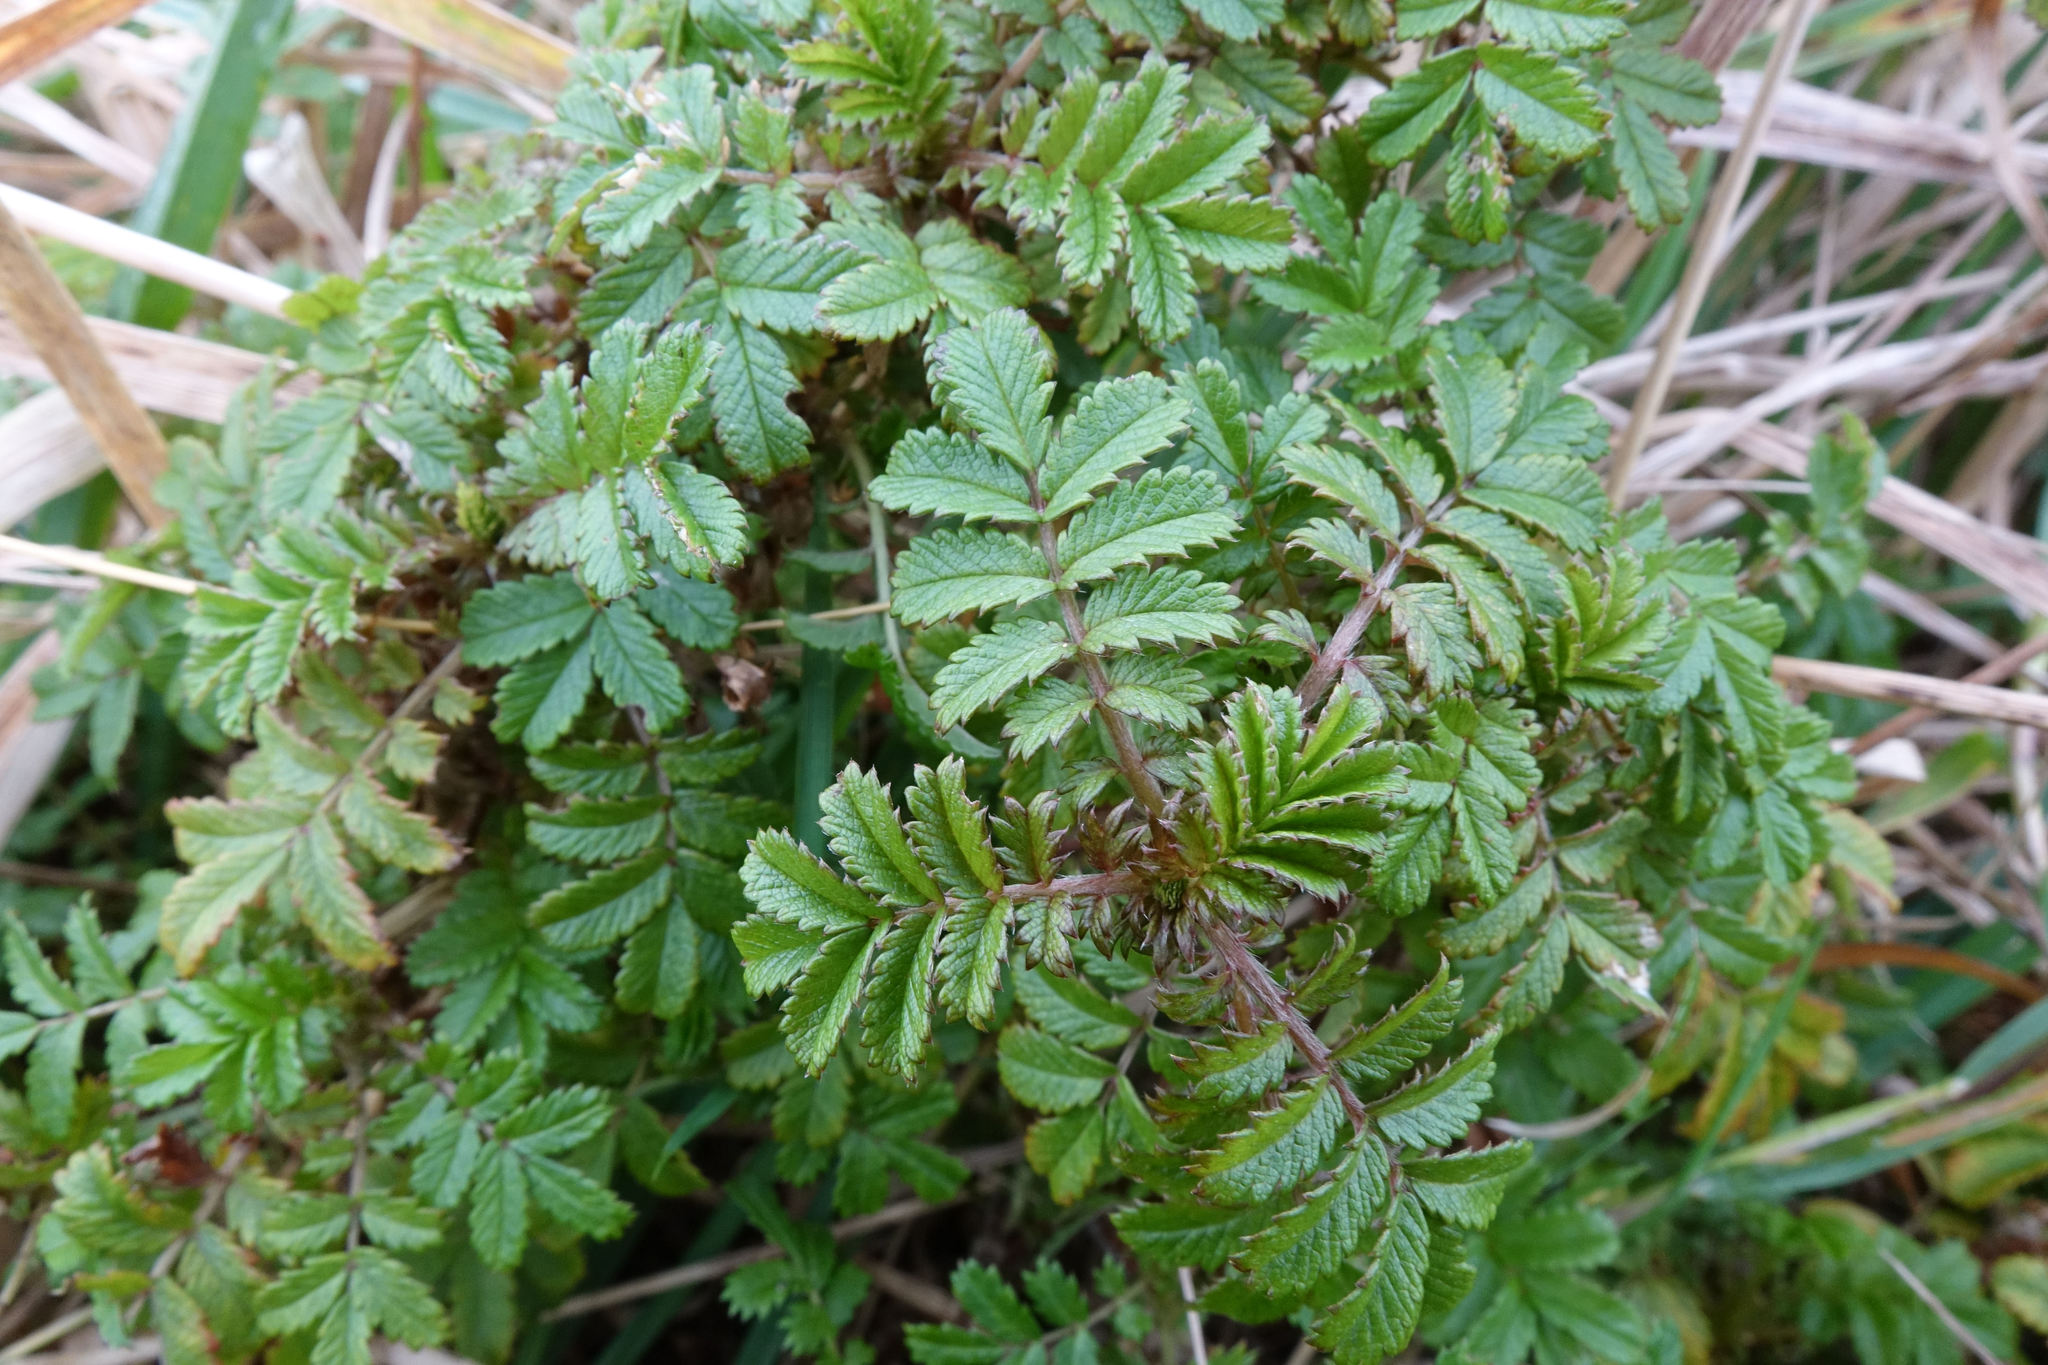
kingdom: Plantae
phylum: Tracheophyta
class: Magnoliopsida
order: Rosales
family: Rosaceae
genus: Acaena
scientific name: Acaena anserinifolia
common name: Bronze pirri-pirri-bur
